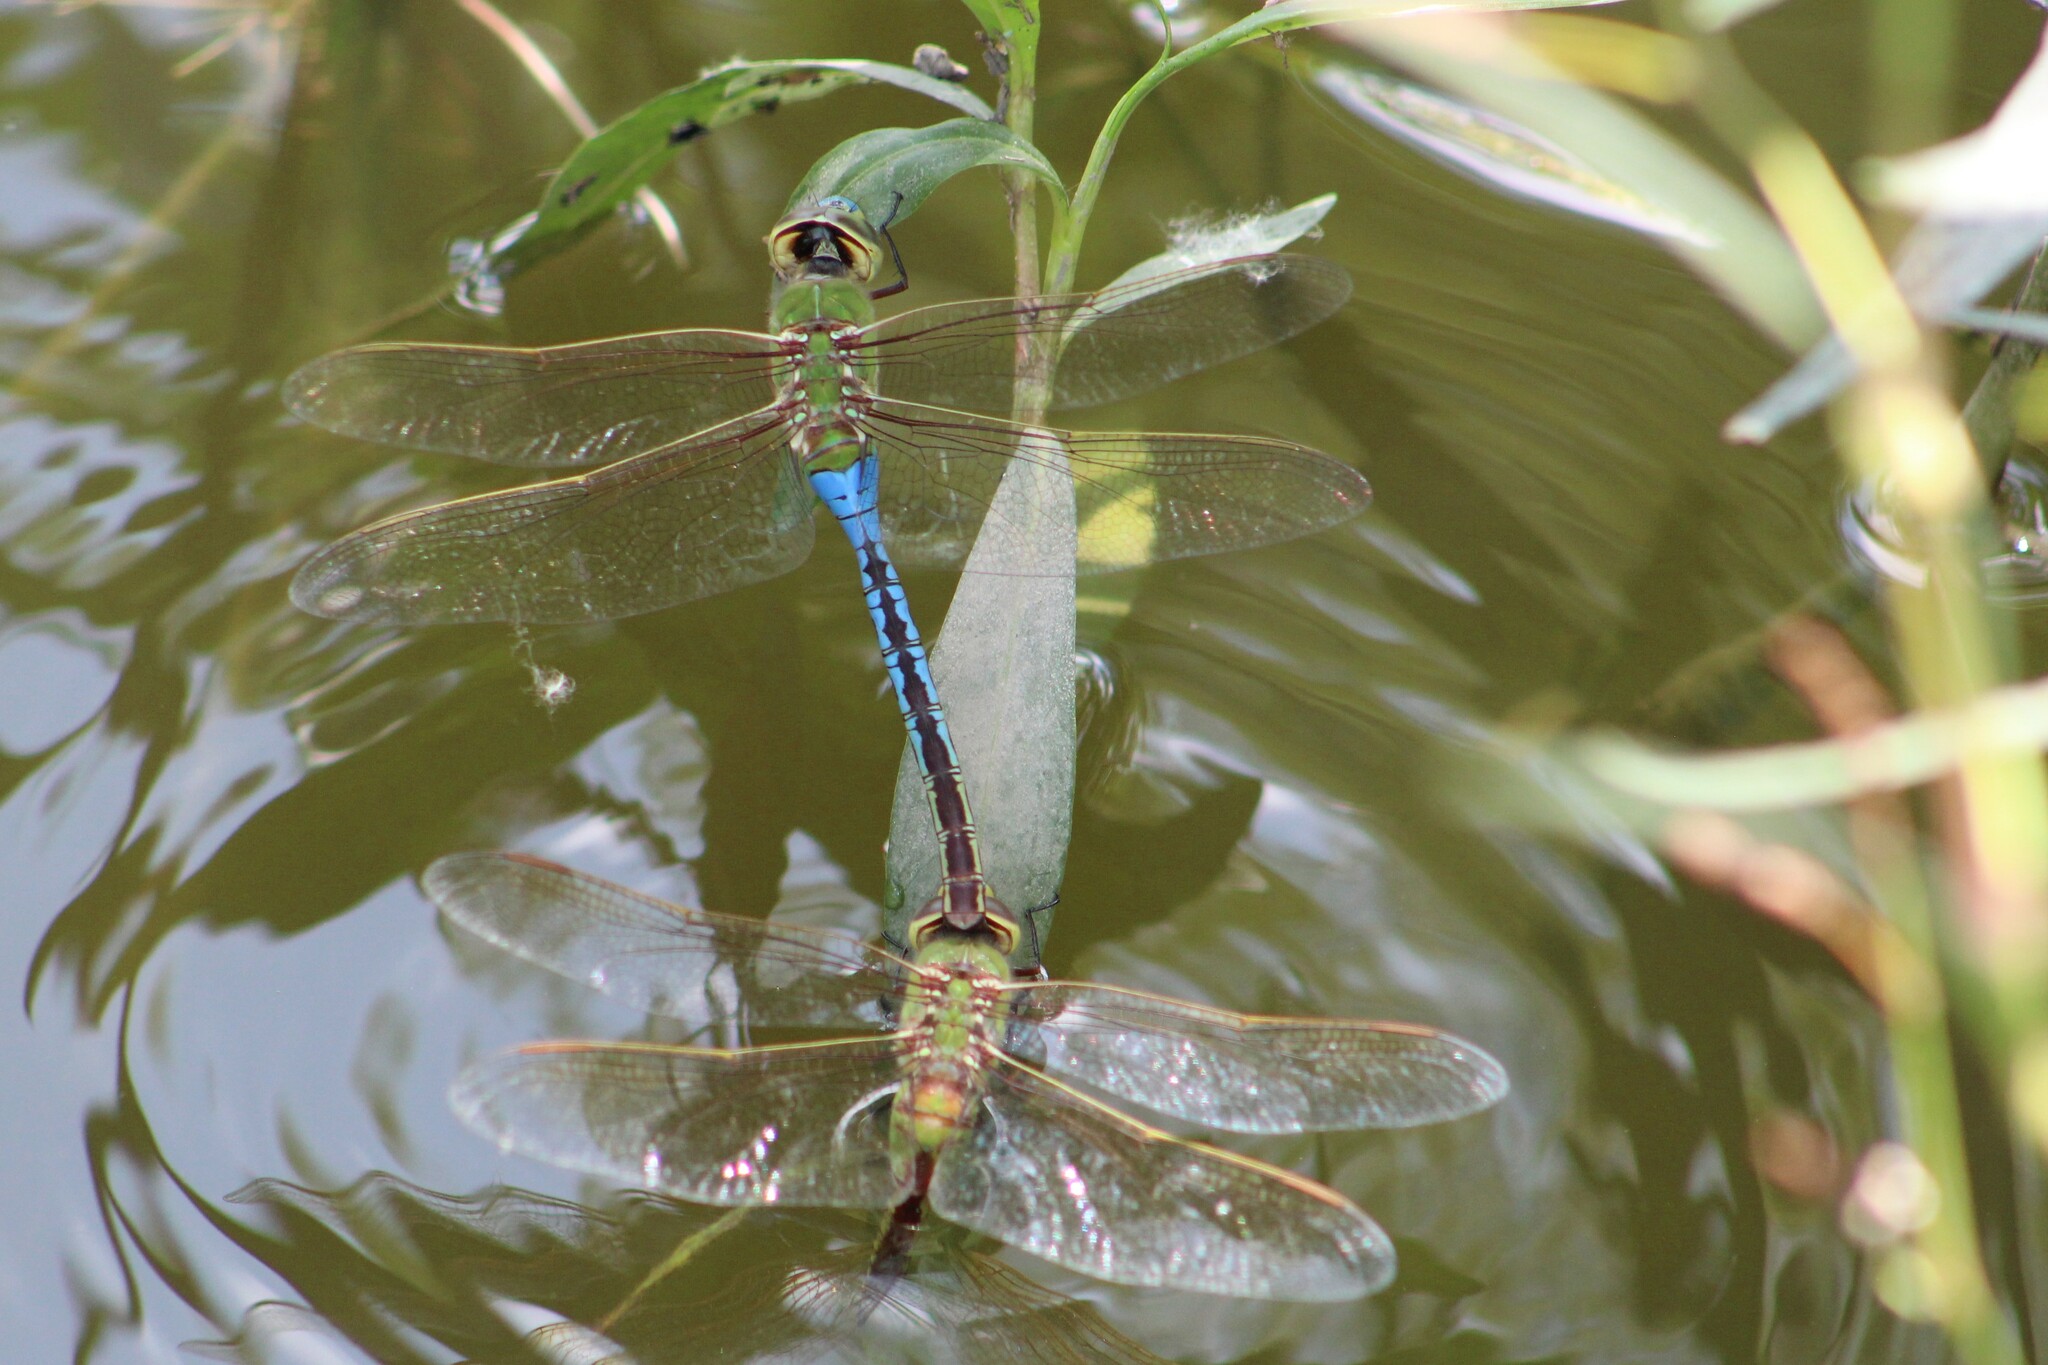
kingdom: Animalia
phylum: Arthropoda
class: Insecta
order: Odonata
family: Aeshnidae
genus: Anax
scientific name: Anax junius
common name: Common green darner
